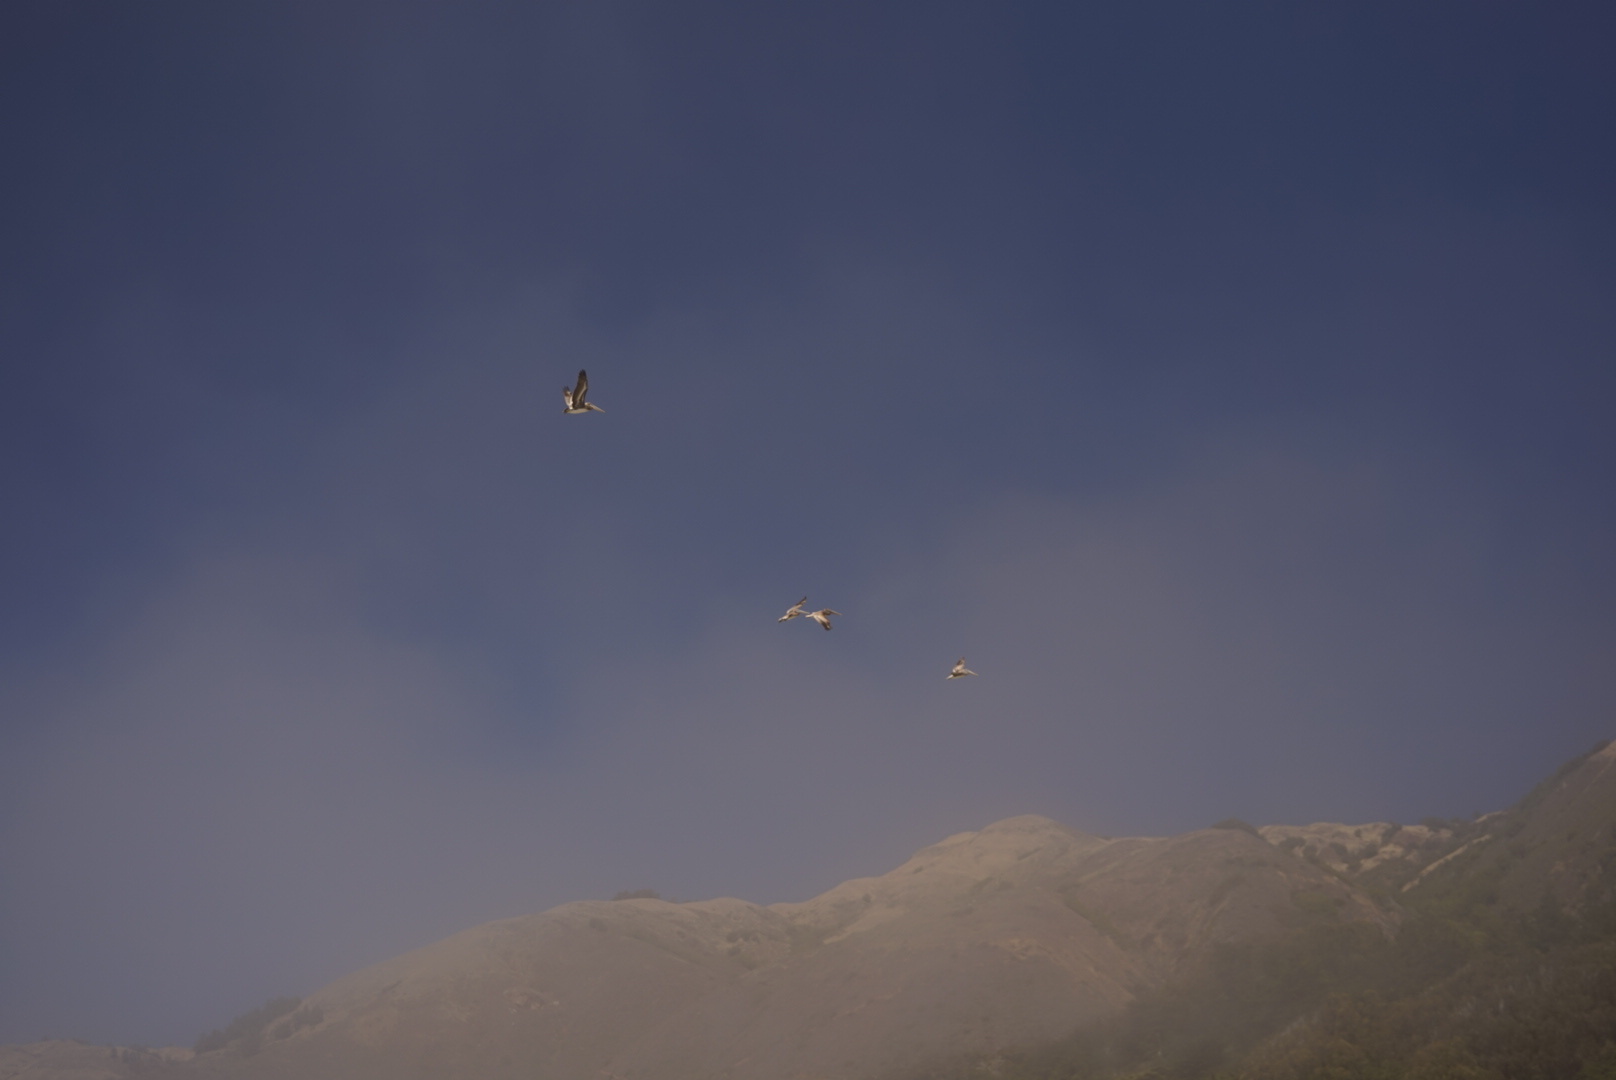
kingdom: Animalia
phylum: Chordata
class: Aves
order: Pelecaniformes
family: Pelecanidae
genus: Pelecanus
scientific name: Pelecanus occidentalis
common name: Brown pelican
